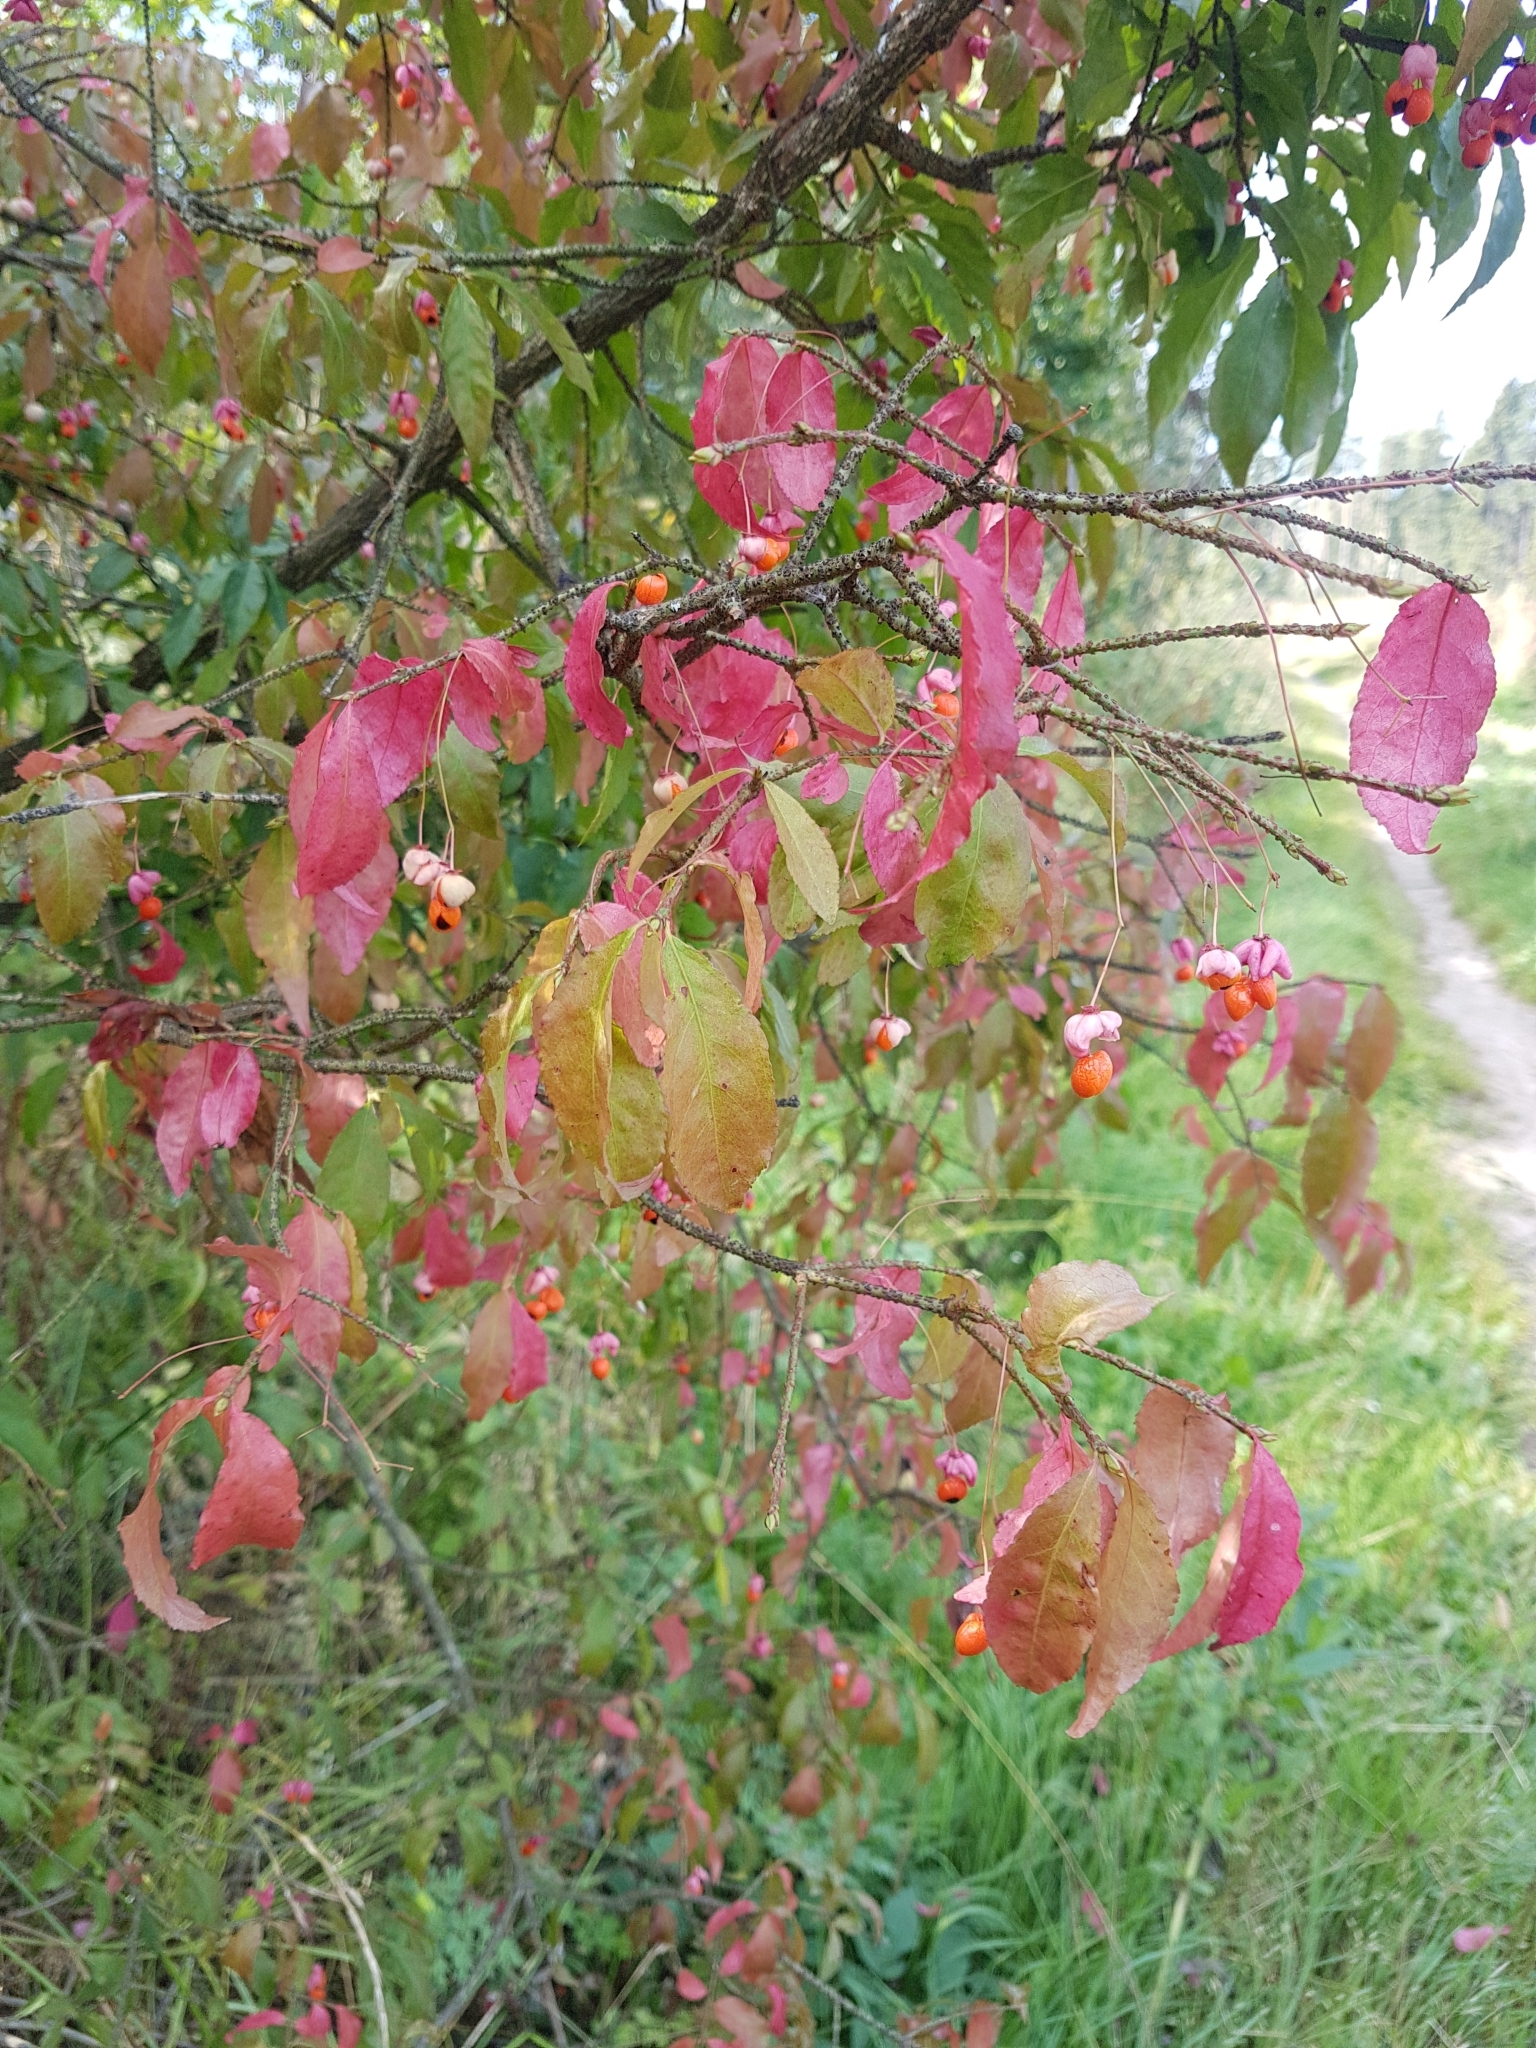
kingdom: Plantae
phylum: Tracheophyta
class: Magnoliopsida
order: Celastrales
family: Celastraceae
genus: Euonymus
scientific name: Euonymus verrucosus
